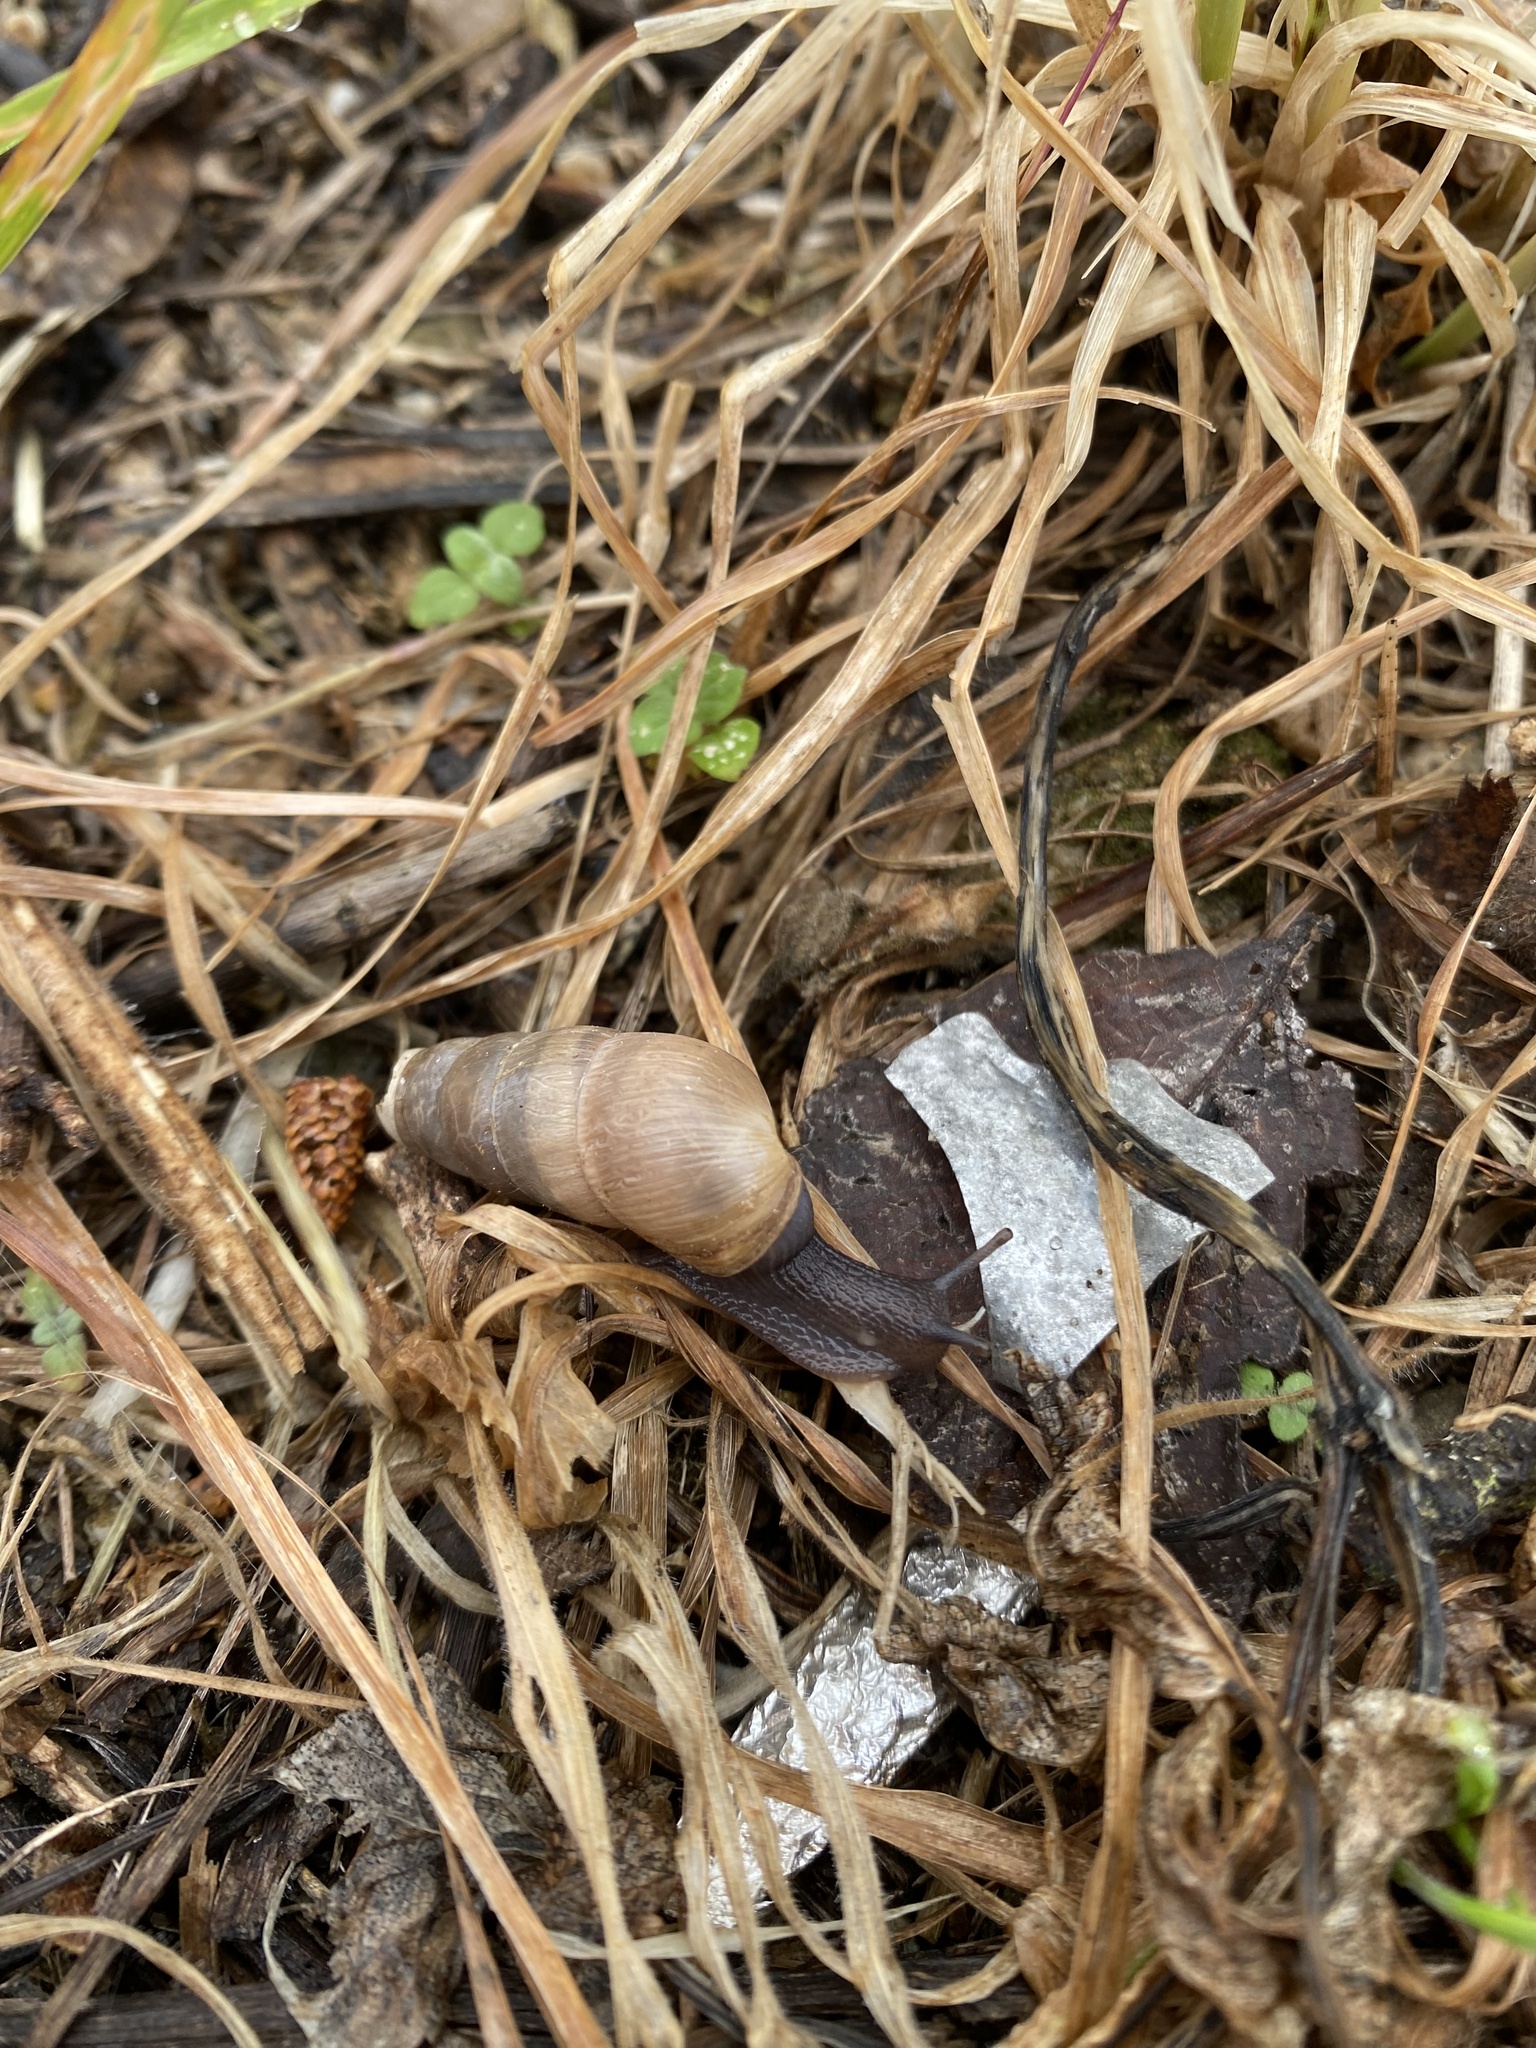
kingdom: Animalia
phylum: Mollusca
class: Gastropoda
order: Stylommatophora
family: Achatinidae
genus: Rumina
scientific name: Rumina decollata
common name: Decollate snail
